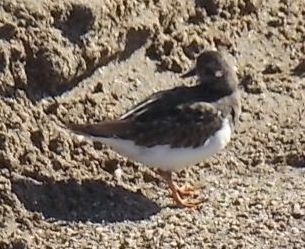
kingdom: Animalia
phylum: Chordata
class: Aves
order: Charadriiformes
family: Scolopacidae
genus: Arenaria
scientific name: Arenaria interpres
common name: Ruddy turnstone
